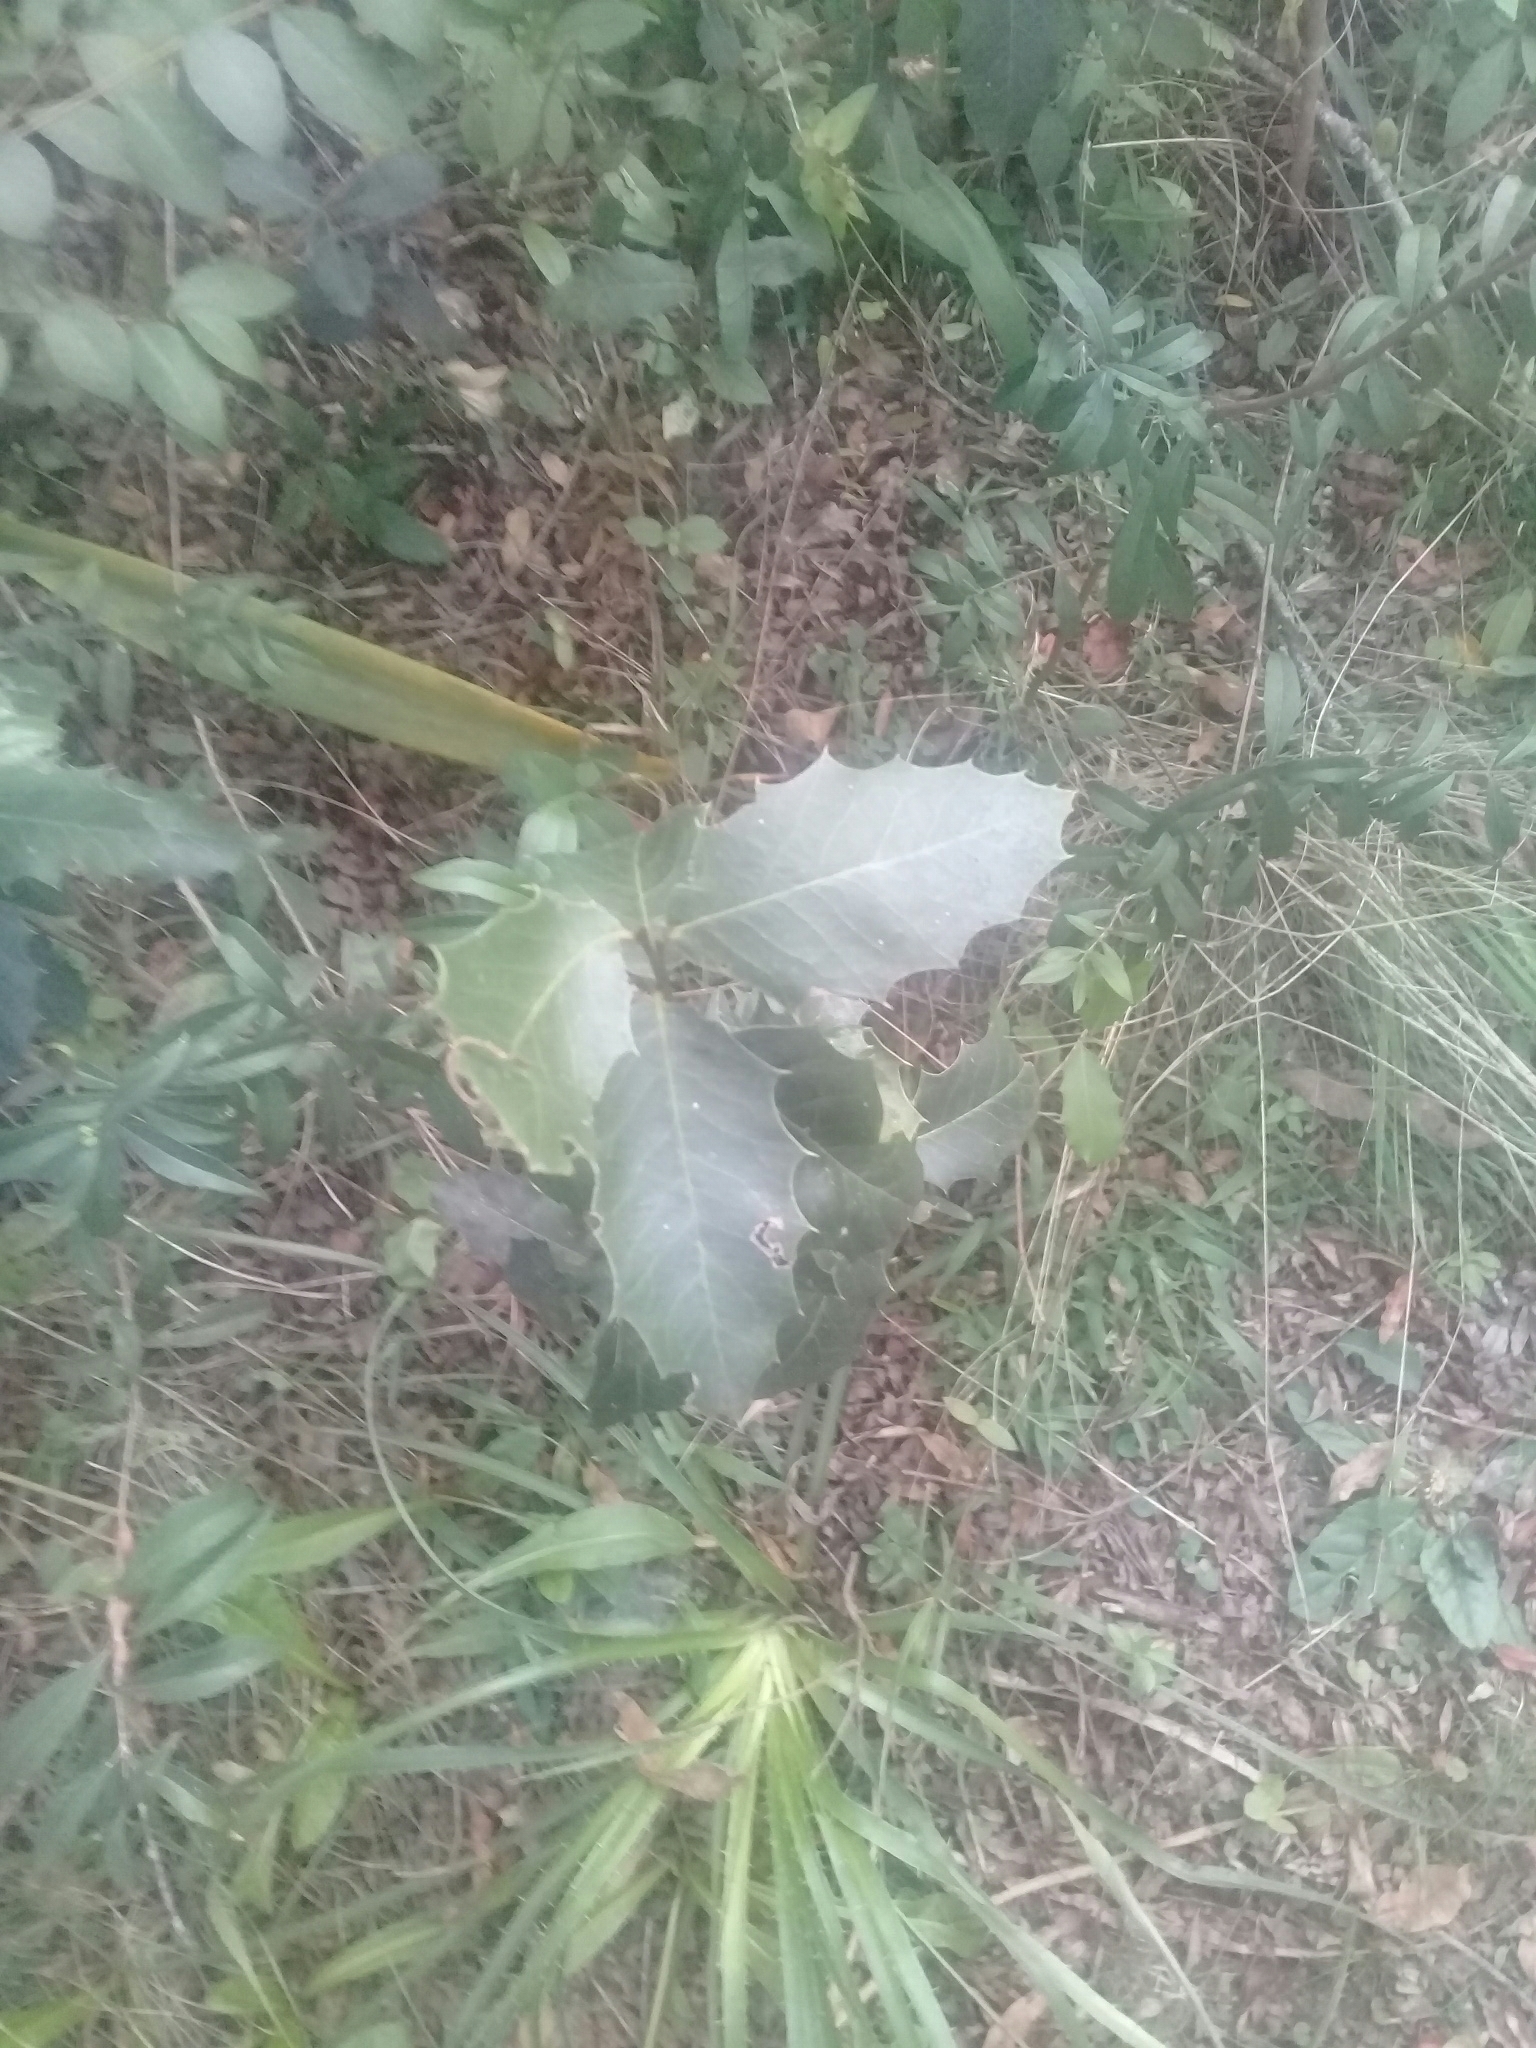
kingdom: Plantae
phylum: Tracheophyta
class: Magnoliopsida
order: Celastrales
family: Celastraceae
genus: Monteverdia
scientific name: Monteverdia
